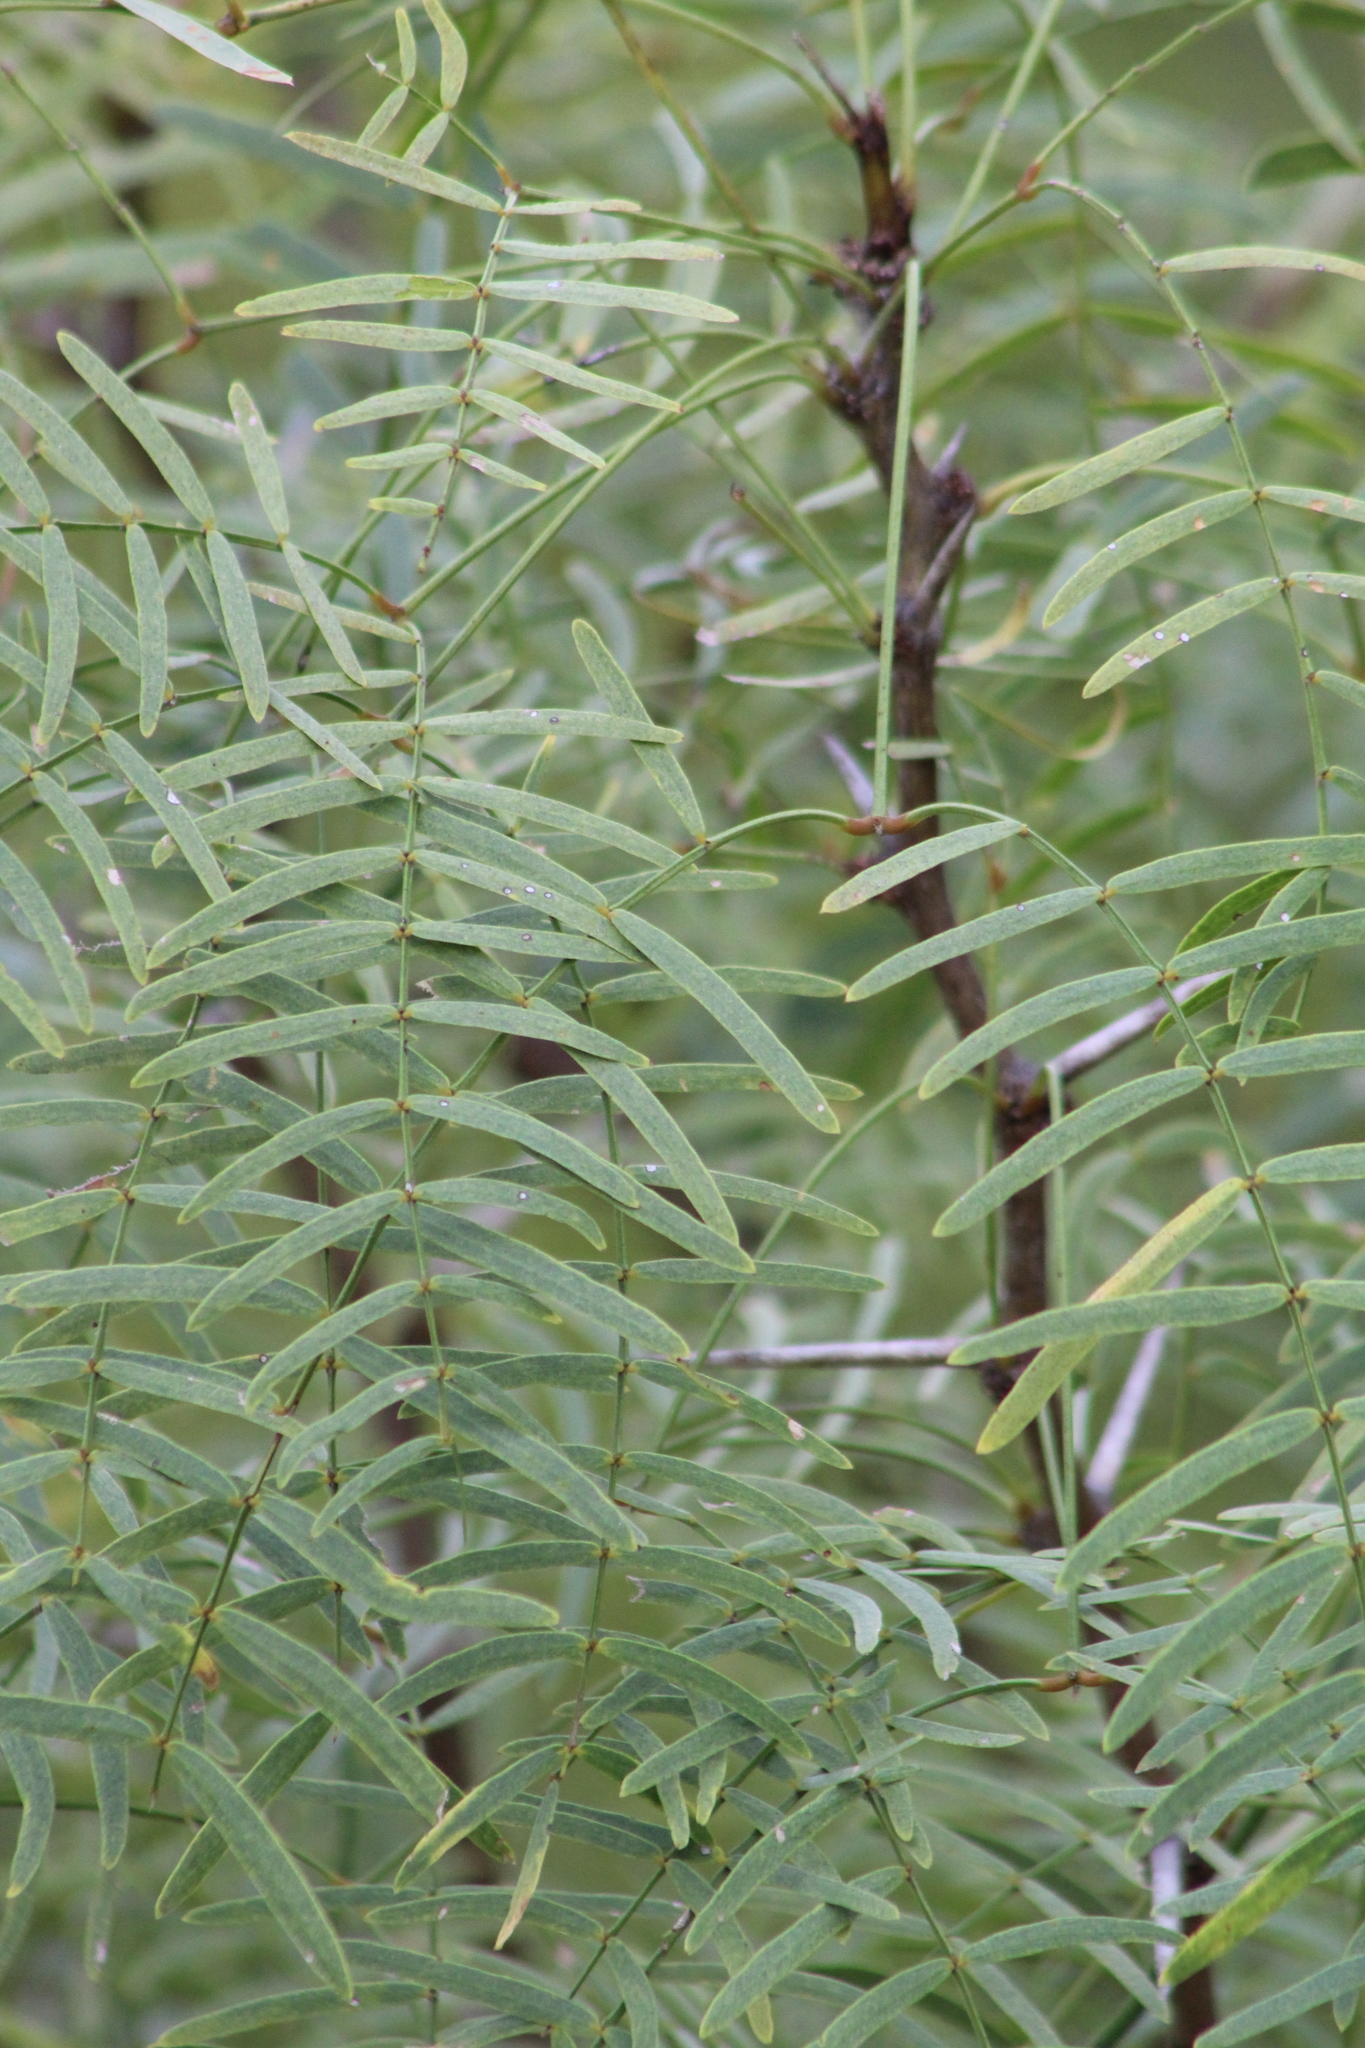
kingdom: Plantae
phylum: Tracheophyta
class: Magnoliopsida
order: Fabales
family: Fabaceae
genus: Prosopis
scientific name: Prosopis glandulosa
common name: Honey mesquite
